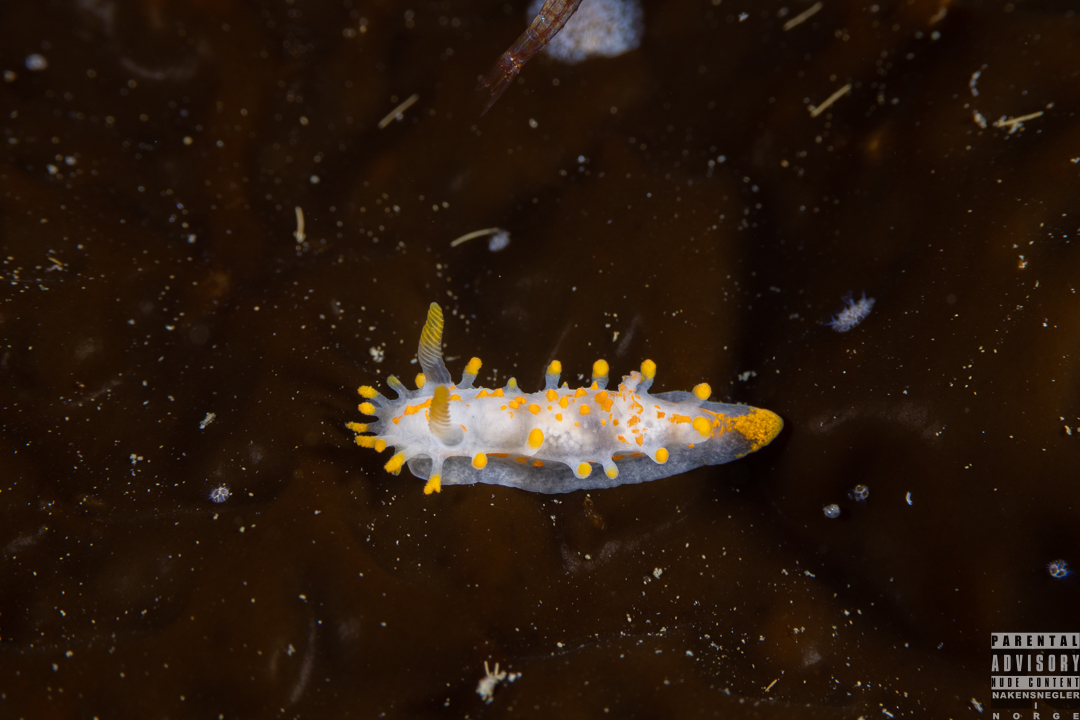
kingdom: Animalia
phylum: Mollusca
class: Gastropoda
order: Nudibranchia
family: Polyceridae
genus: Limacia
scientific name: Limacia clavigera
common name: Orange-clubbed sea slug
